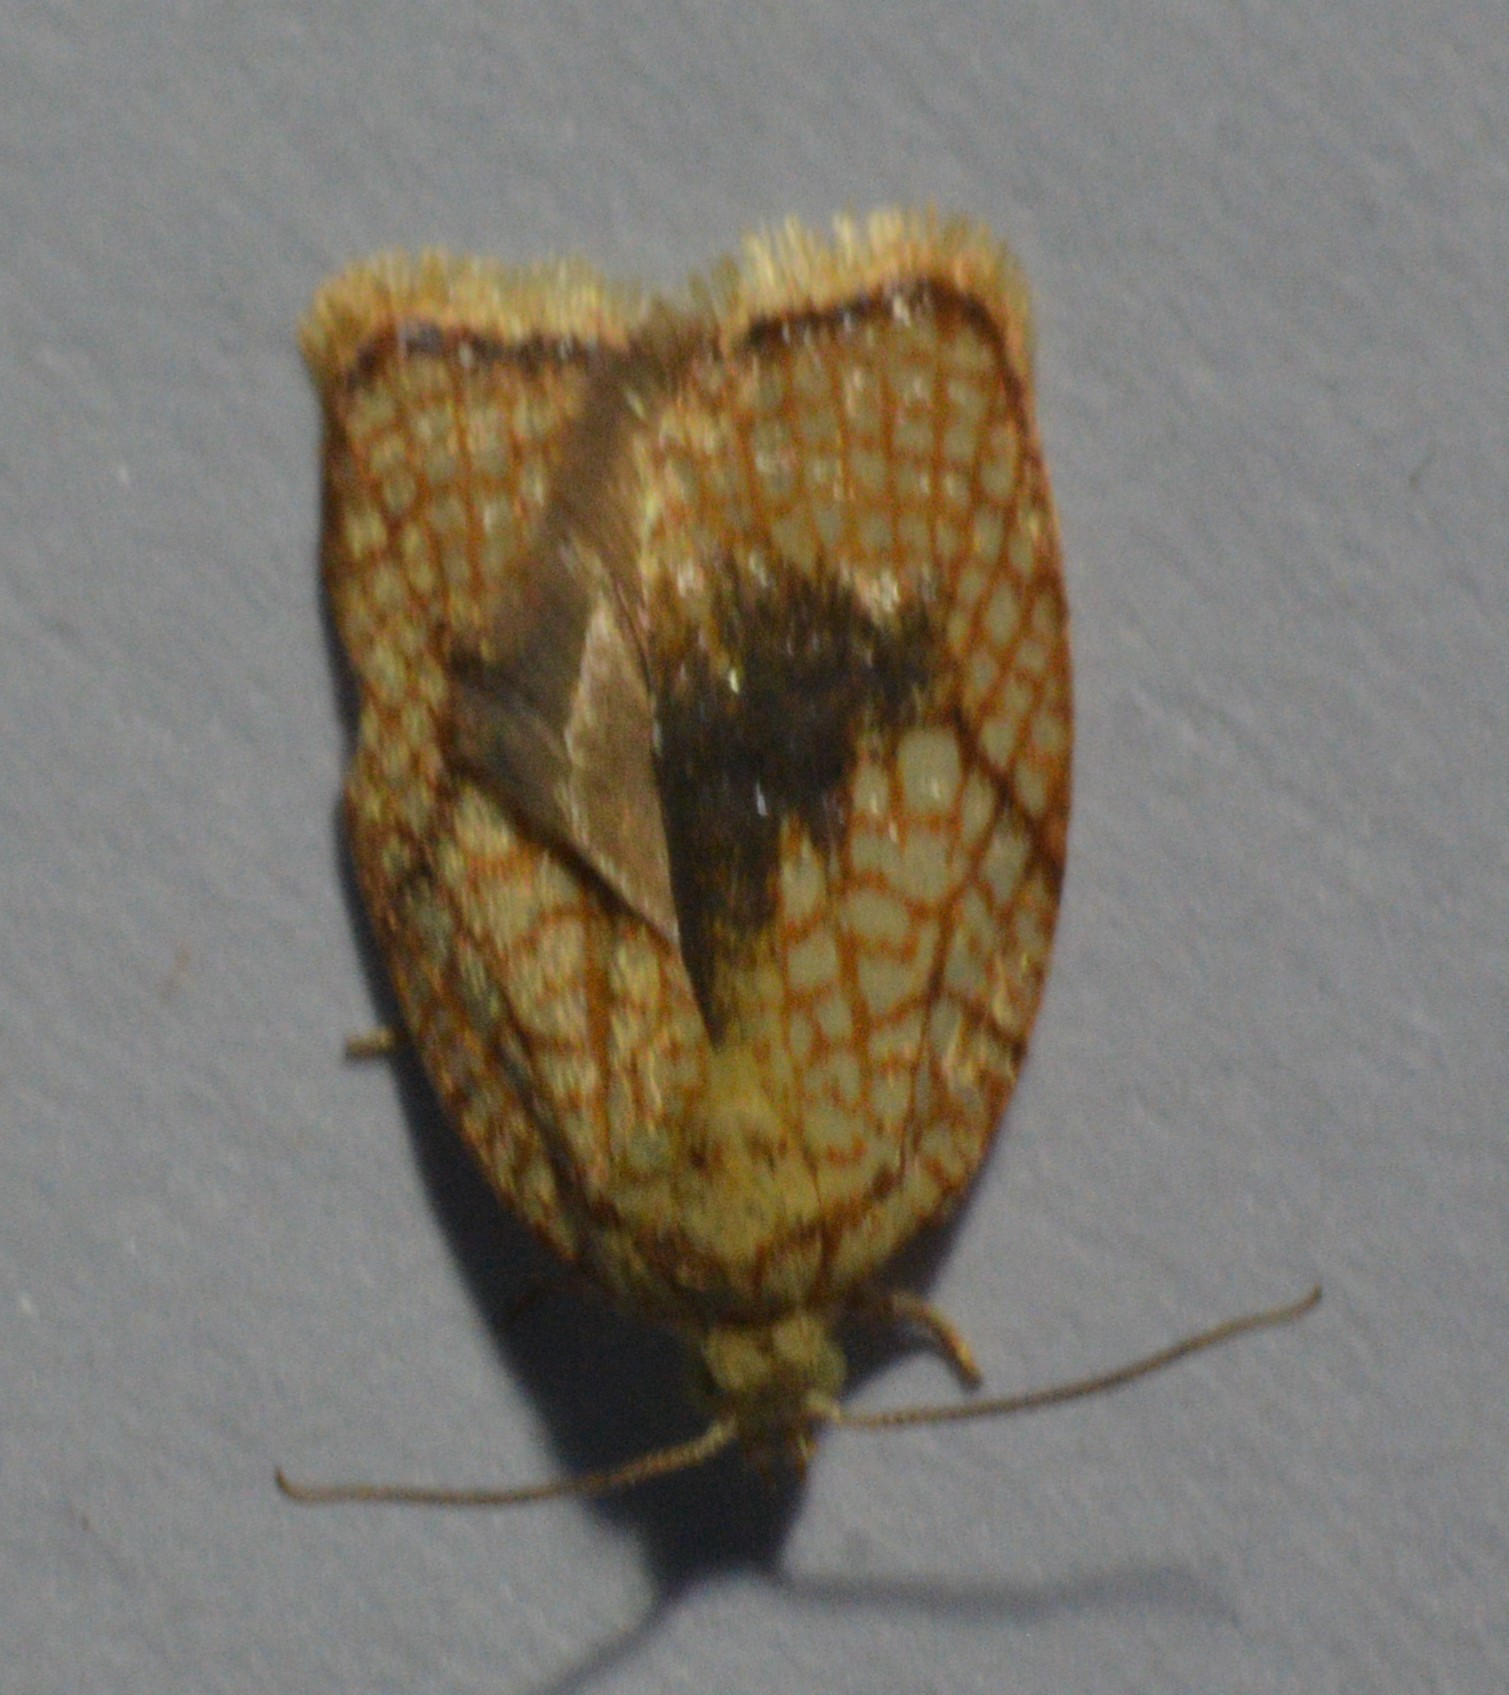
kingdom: Animalia
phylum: Arthropoda
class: Insecta
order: Lepidoptera
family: Tortricidae
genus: Acleris
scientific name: Acleris forsskaleana
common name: Maple button
